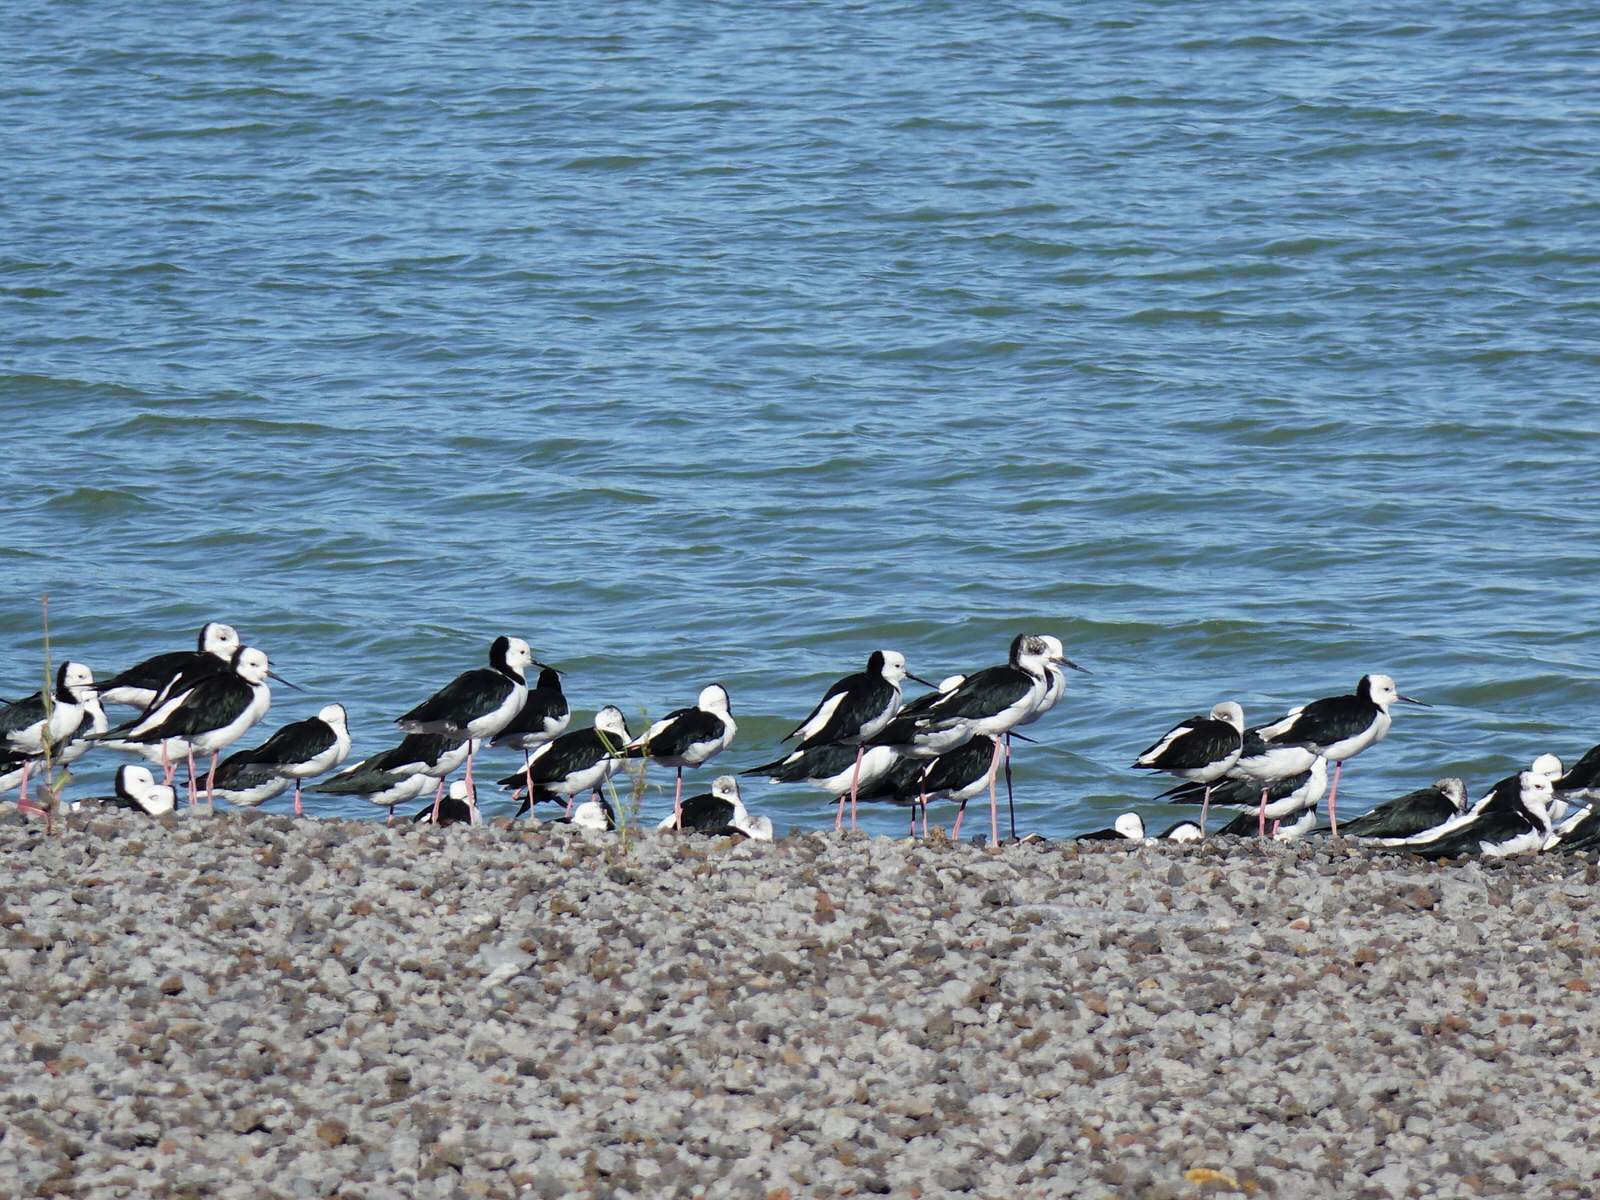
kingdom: Animalia
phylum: Chordata
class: Aves
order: Charadriiformes
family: Recurvirostridae
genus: Himantopus
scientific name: Himantopus leucocephalus
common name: White-headed stilt
